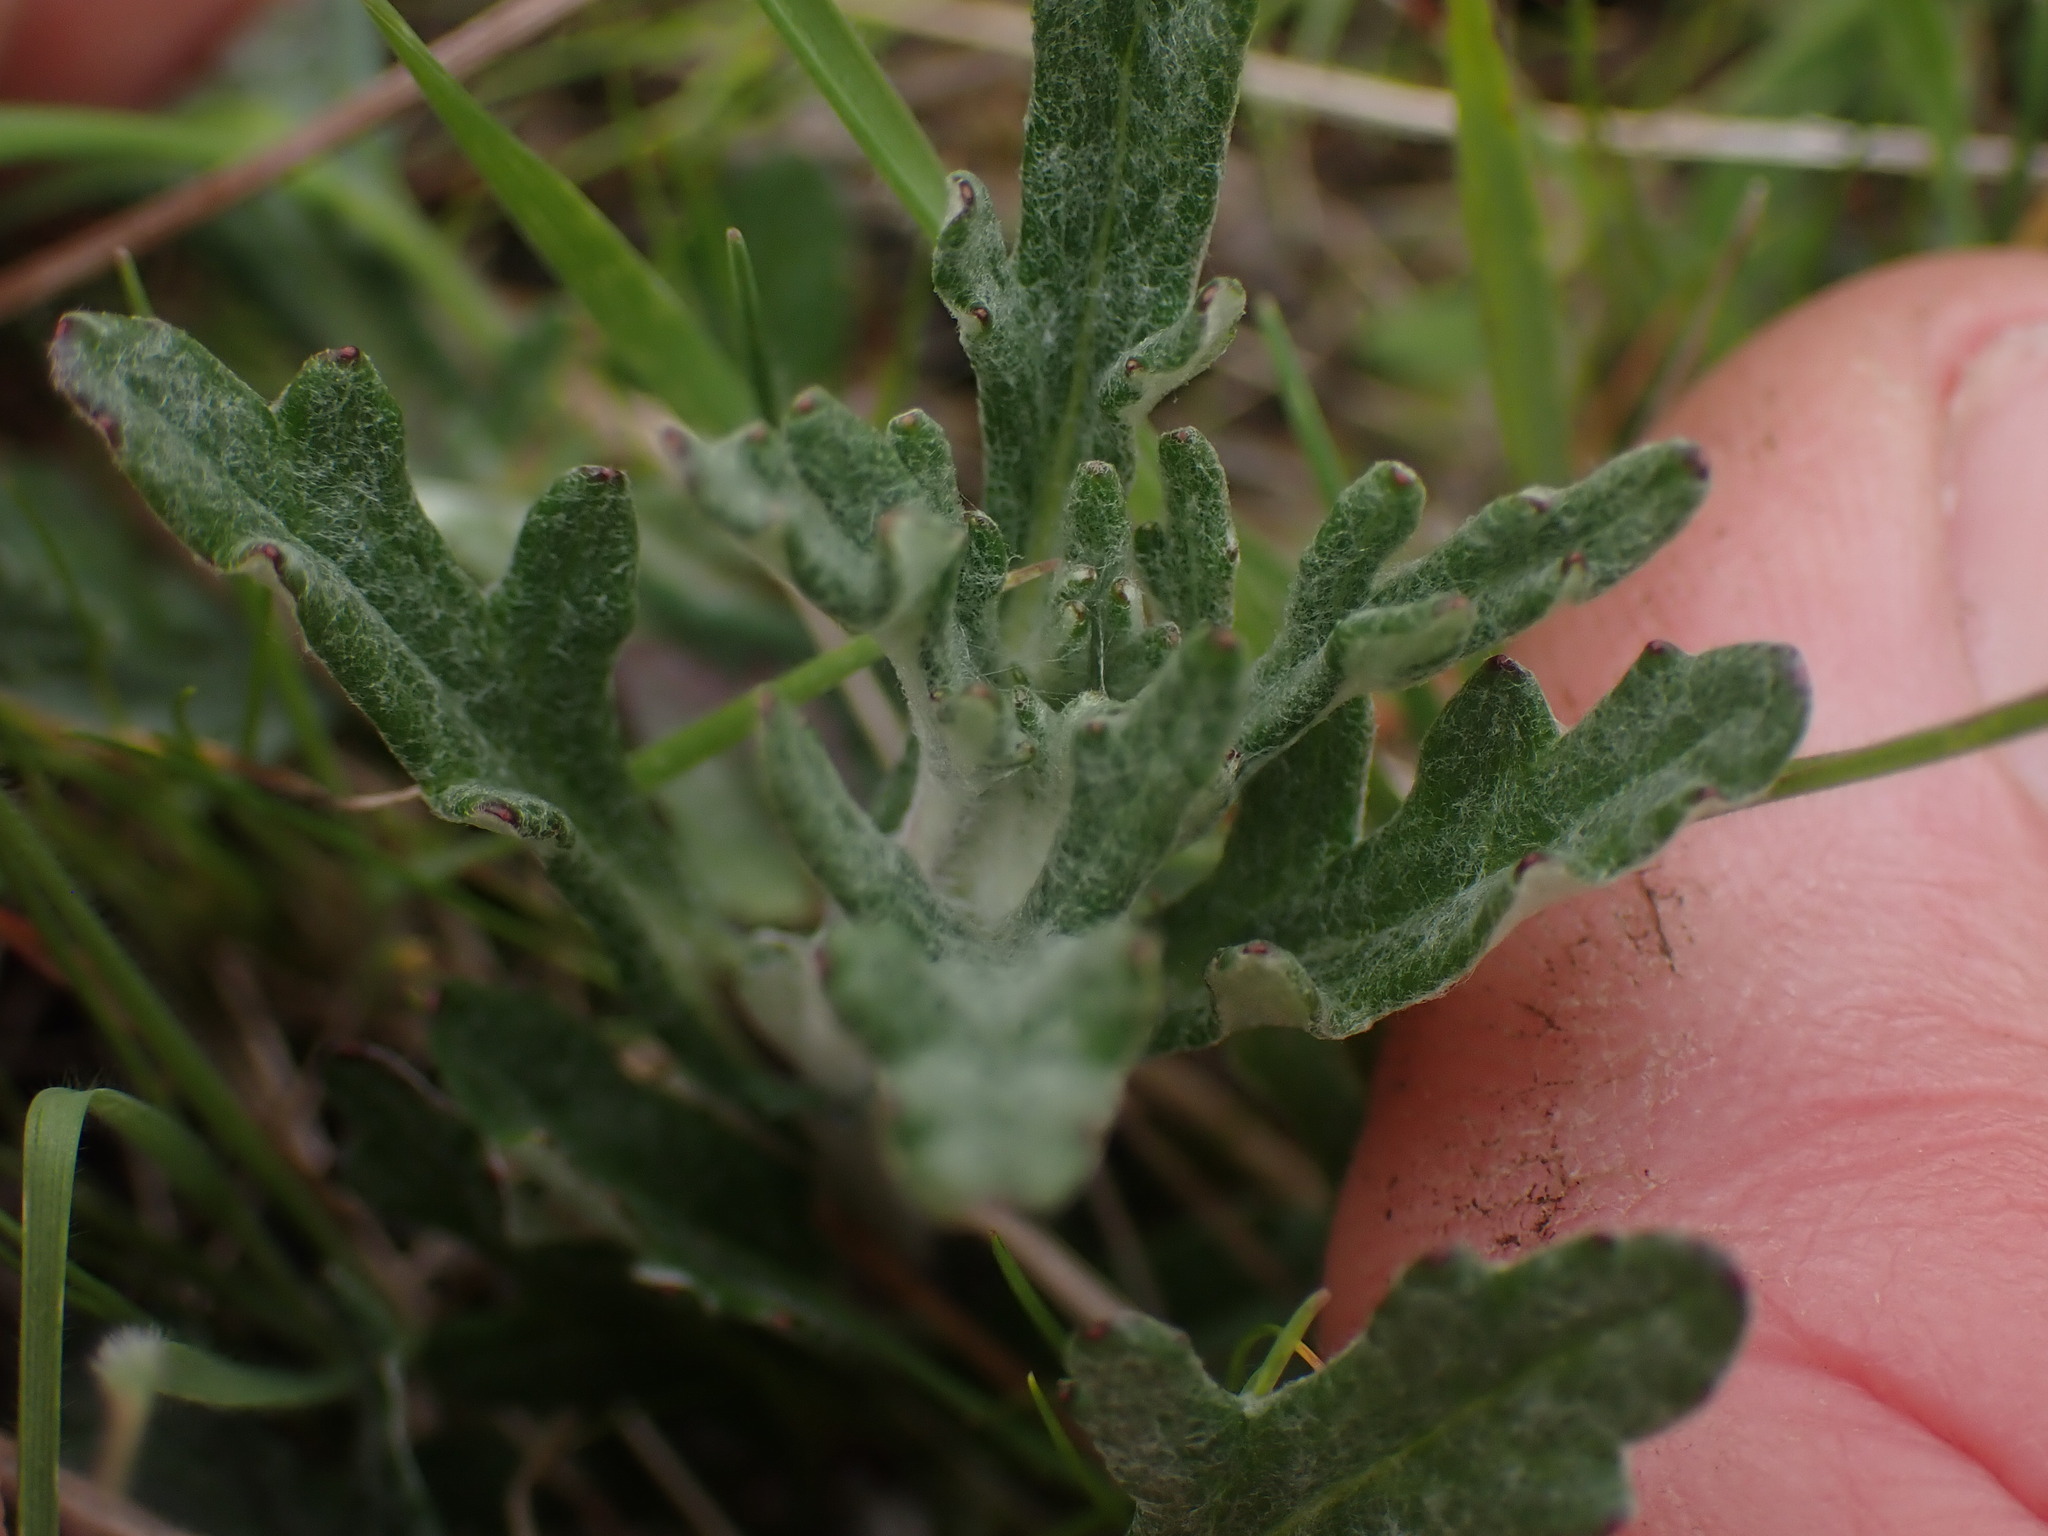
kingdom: Plantae
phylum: Tracheophyta
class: Magnoliopsida
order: Asterales
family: Asteraceae
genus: Eriophyllum
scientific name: Eriophyllum lanatum
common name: Common woolly-sunflower
